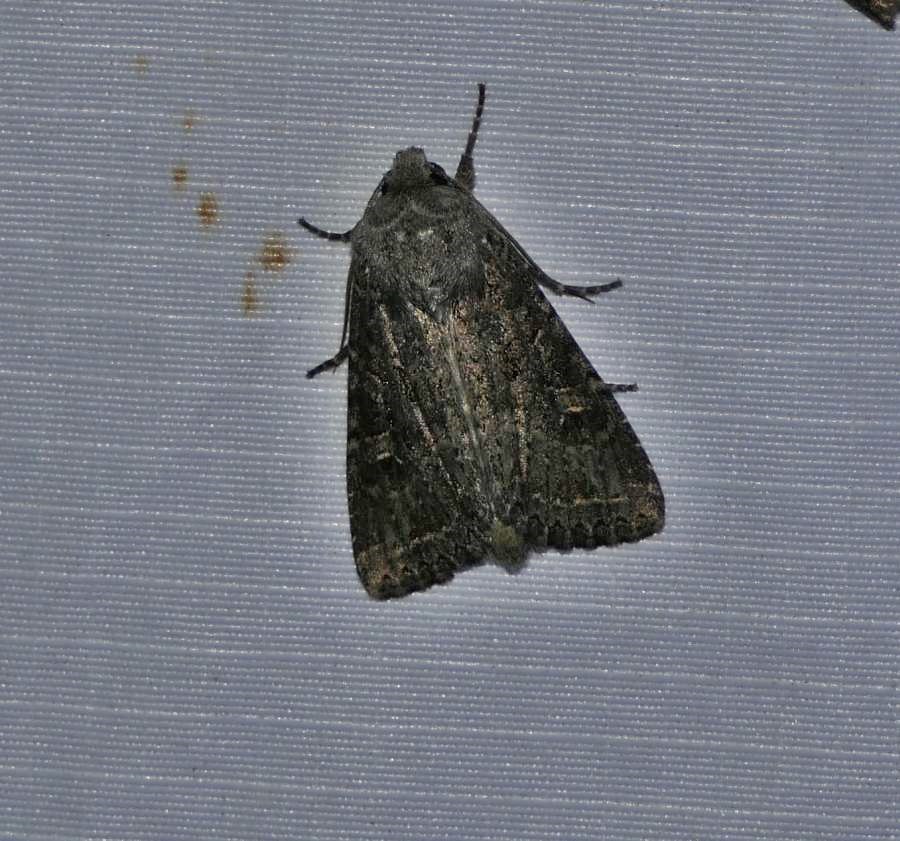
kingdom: Animalia
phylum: Arthropoda
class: Insecta
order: Lepidoptera
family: Noctuidae
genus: Apamea
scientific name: Apamea devastator
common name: Glassy cutworm
